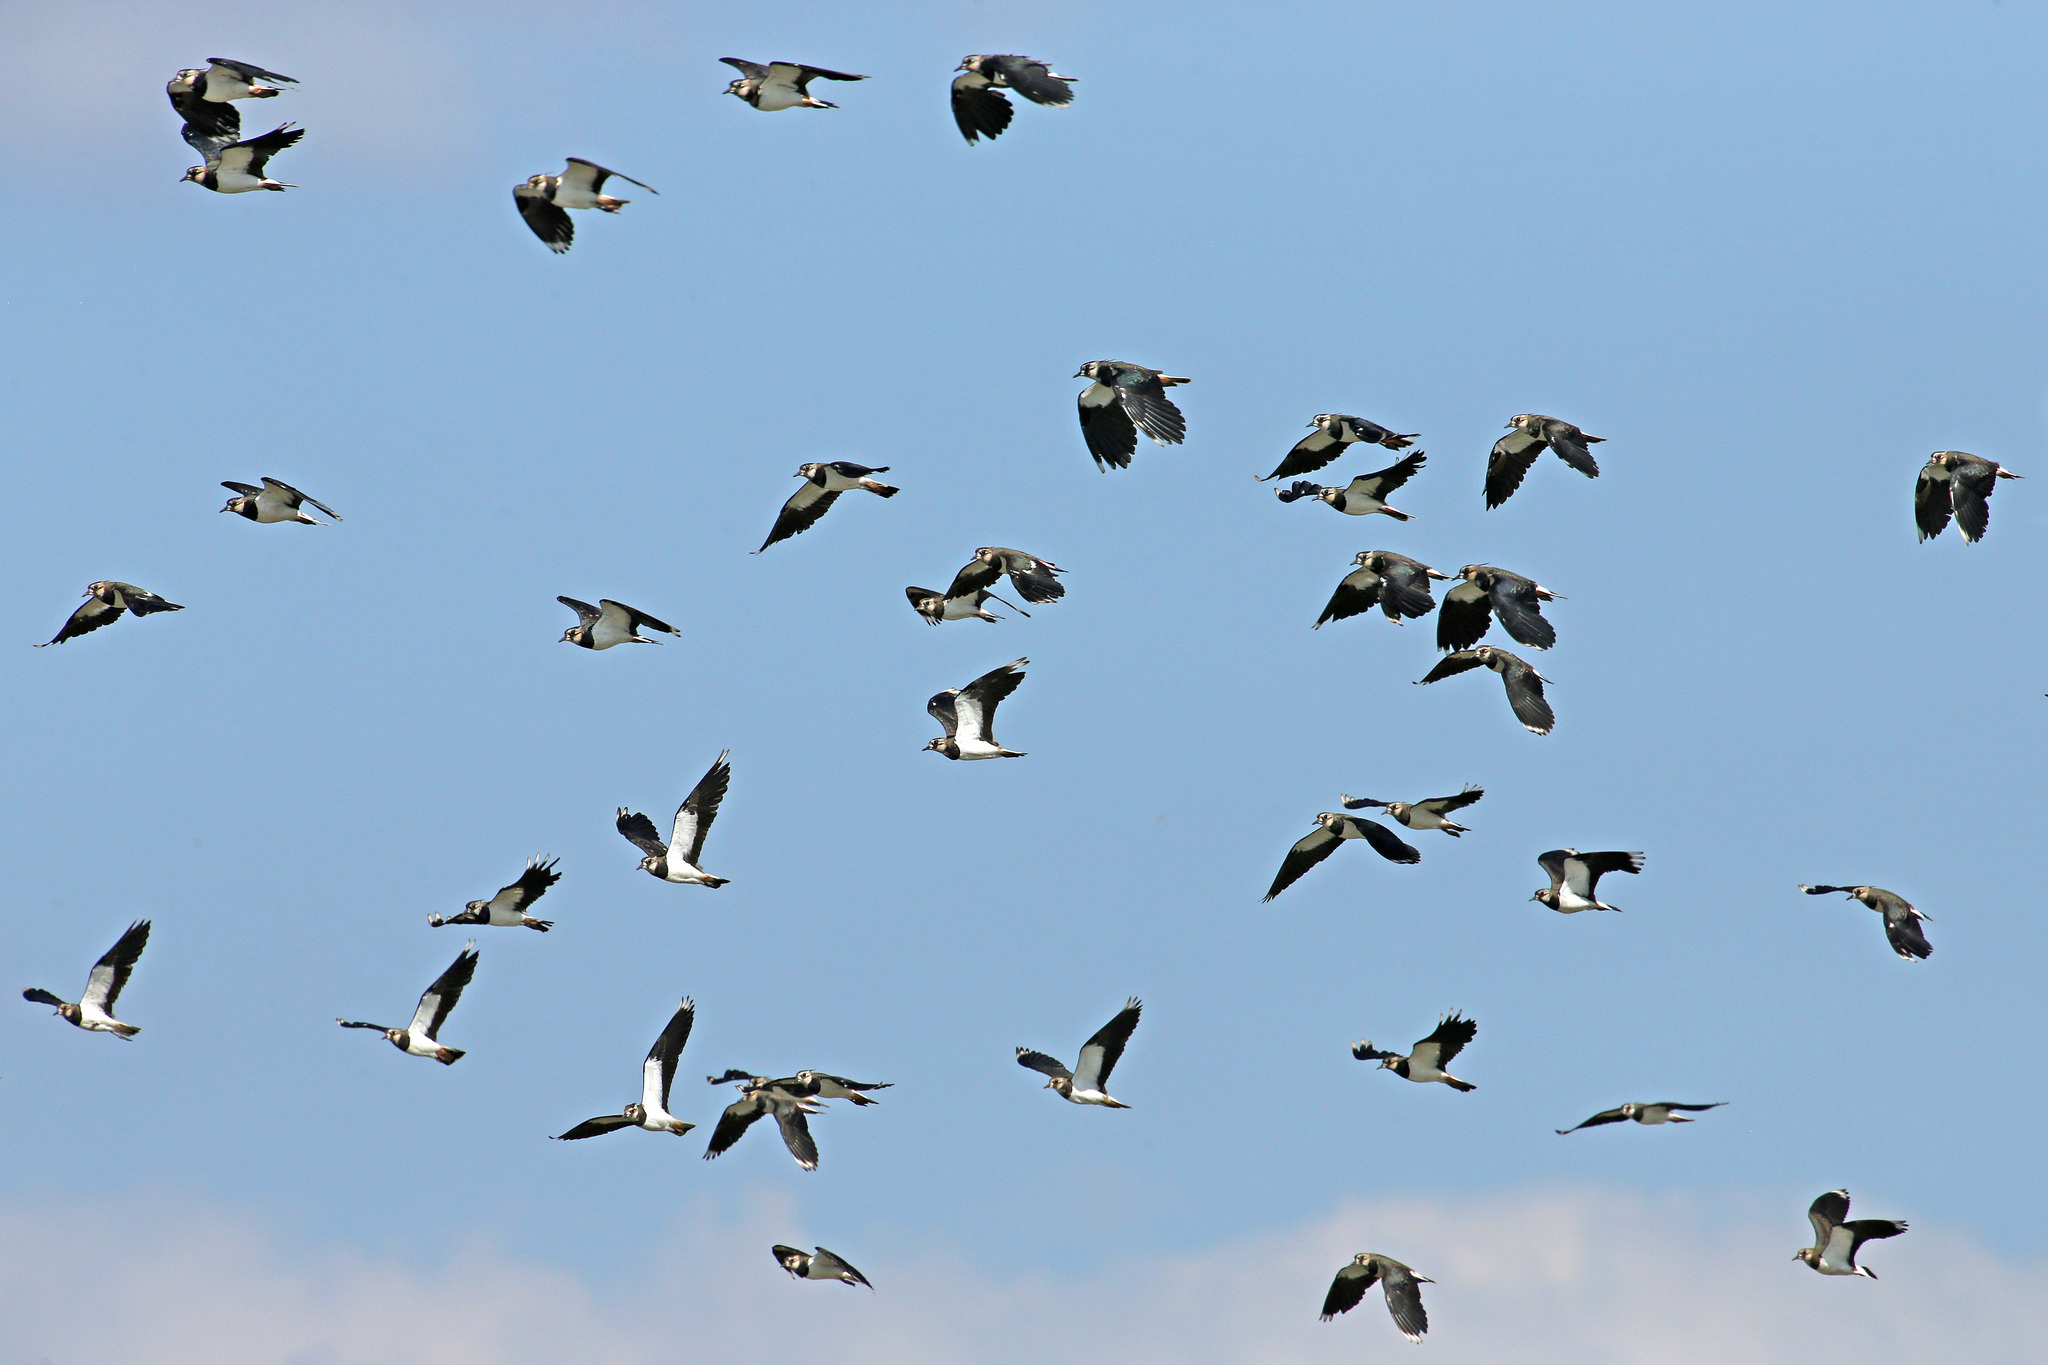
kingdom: Animalia
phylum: Chordata
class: Aves
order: Charadriiformes
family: Charadriidae
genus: Vanellus
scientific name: Vanellus vanellus
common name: Northern lapwing
